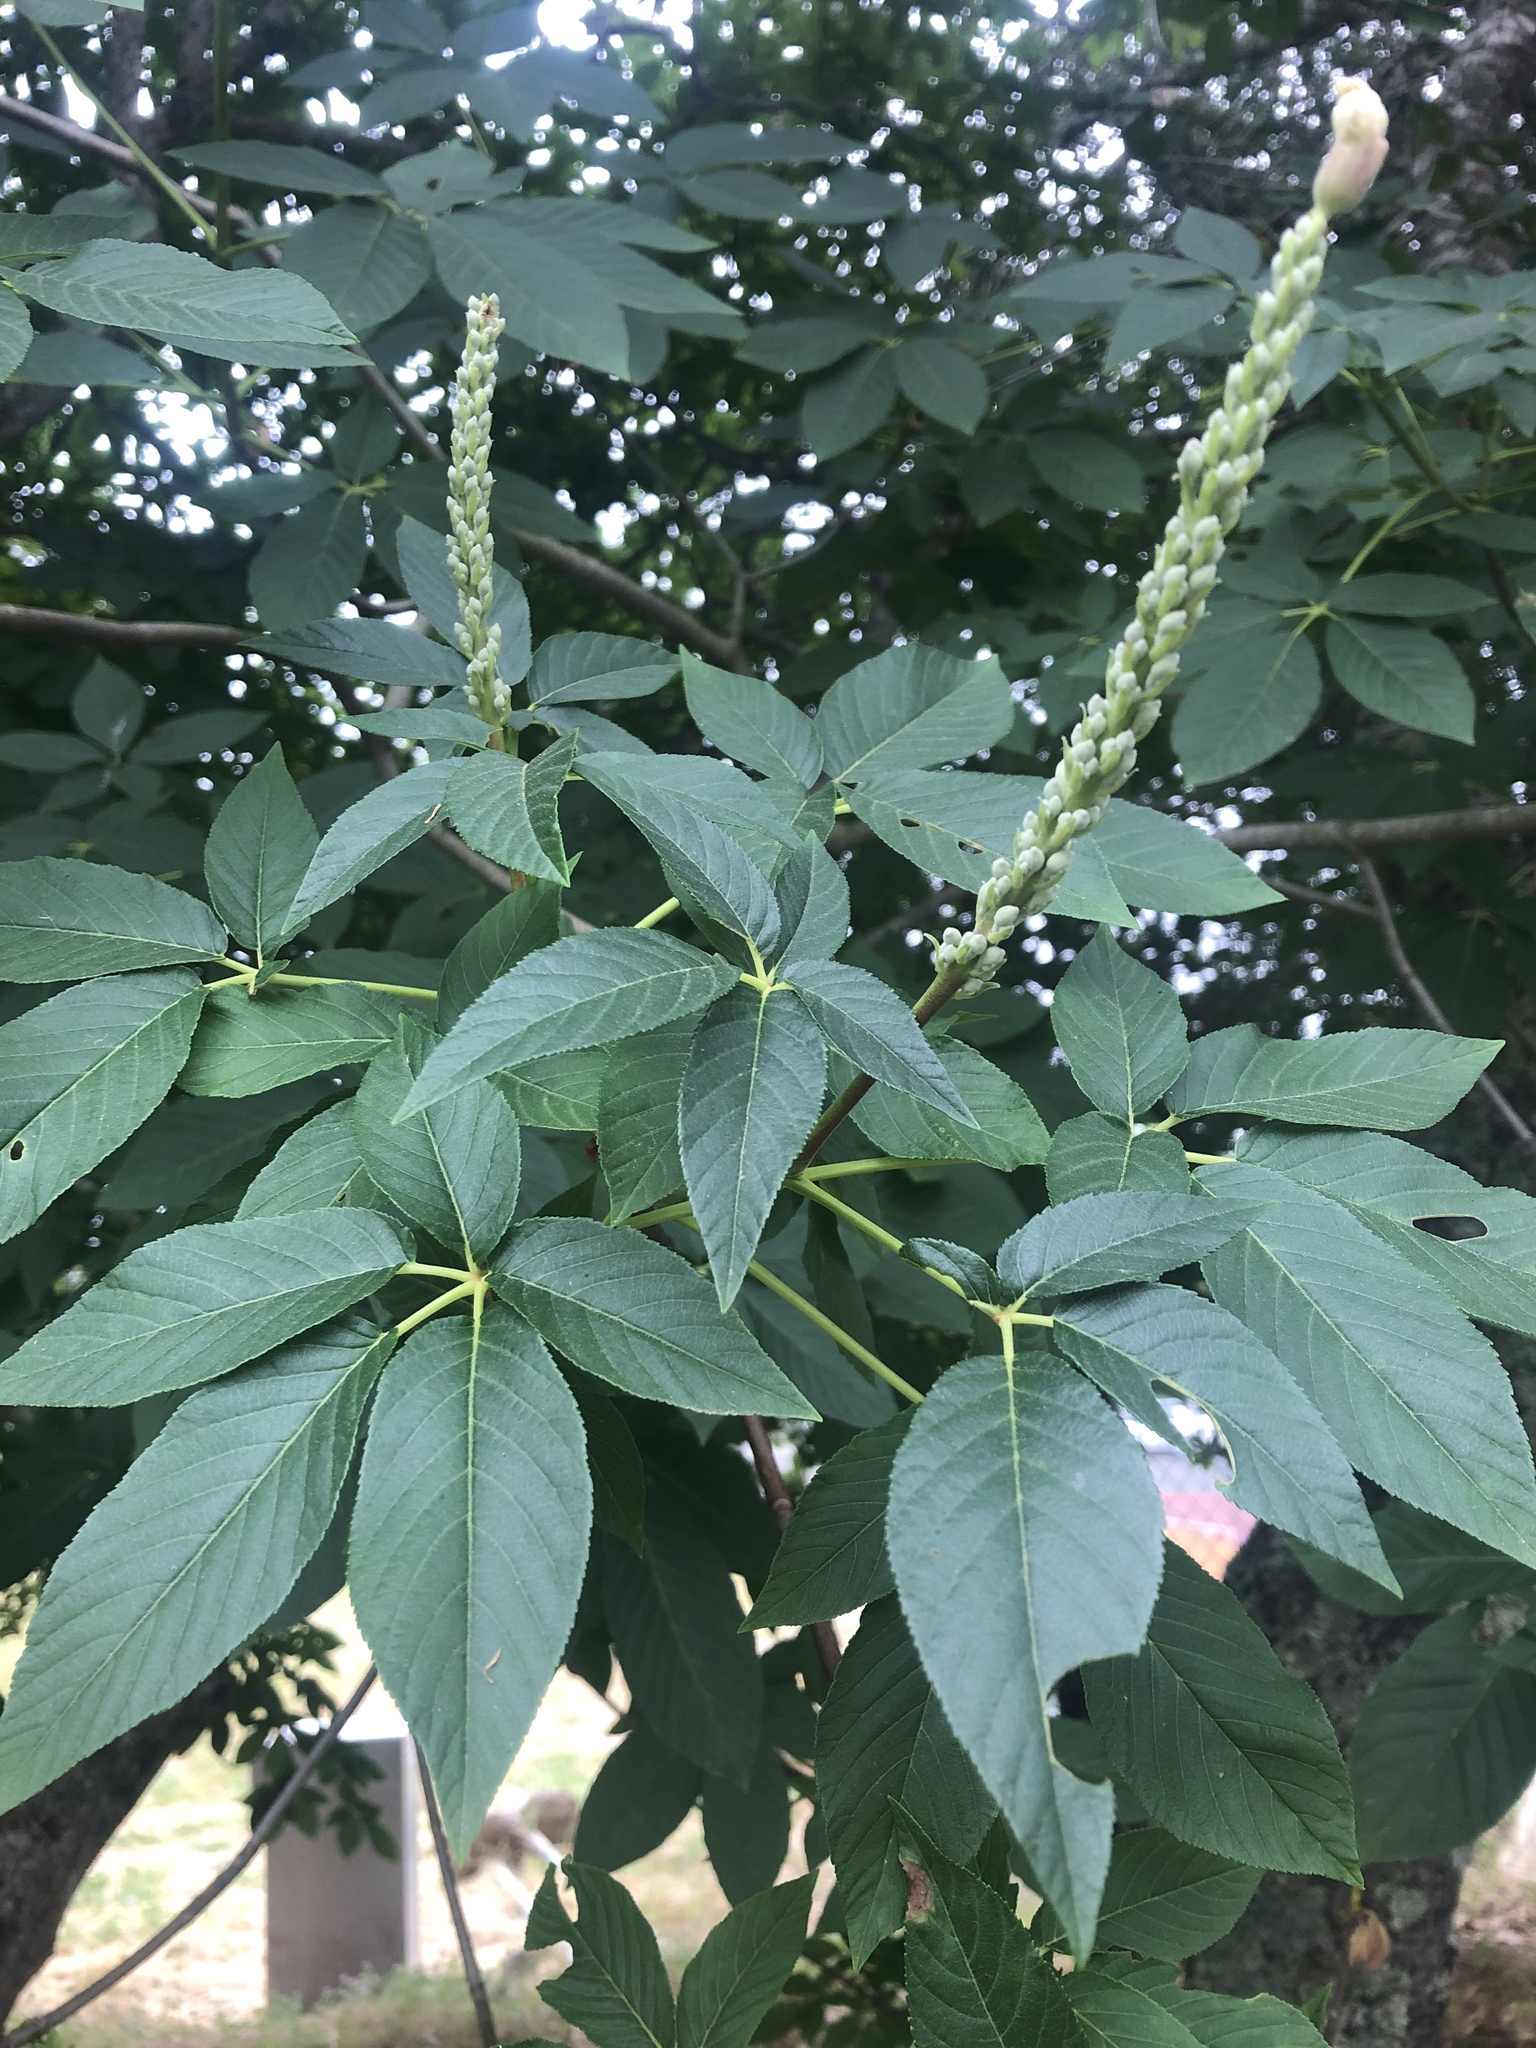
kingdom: Plantae
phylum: Tracheophyta
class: Magnoliopsida
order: Sapindales
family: Sapindaceae
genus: Aesculus
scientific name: Aesculus californica
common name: California buckeye
